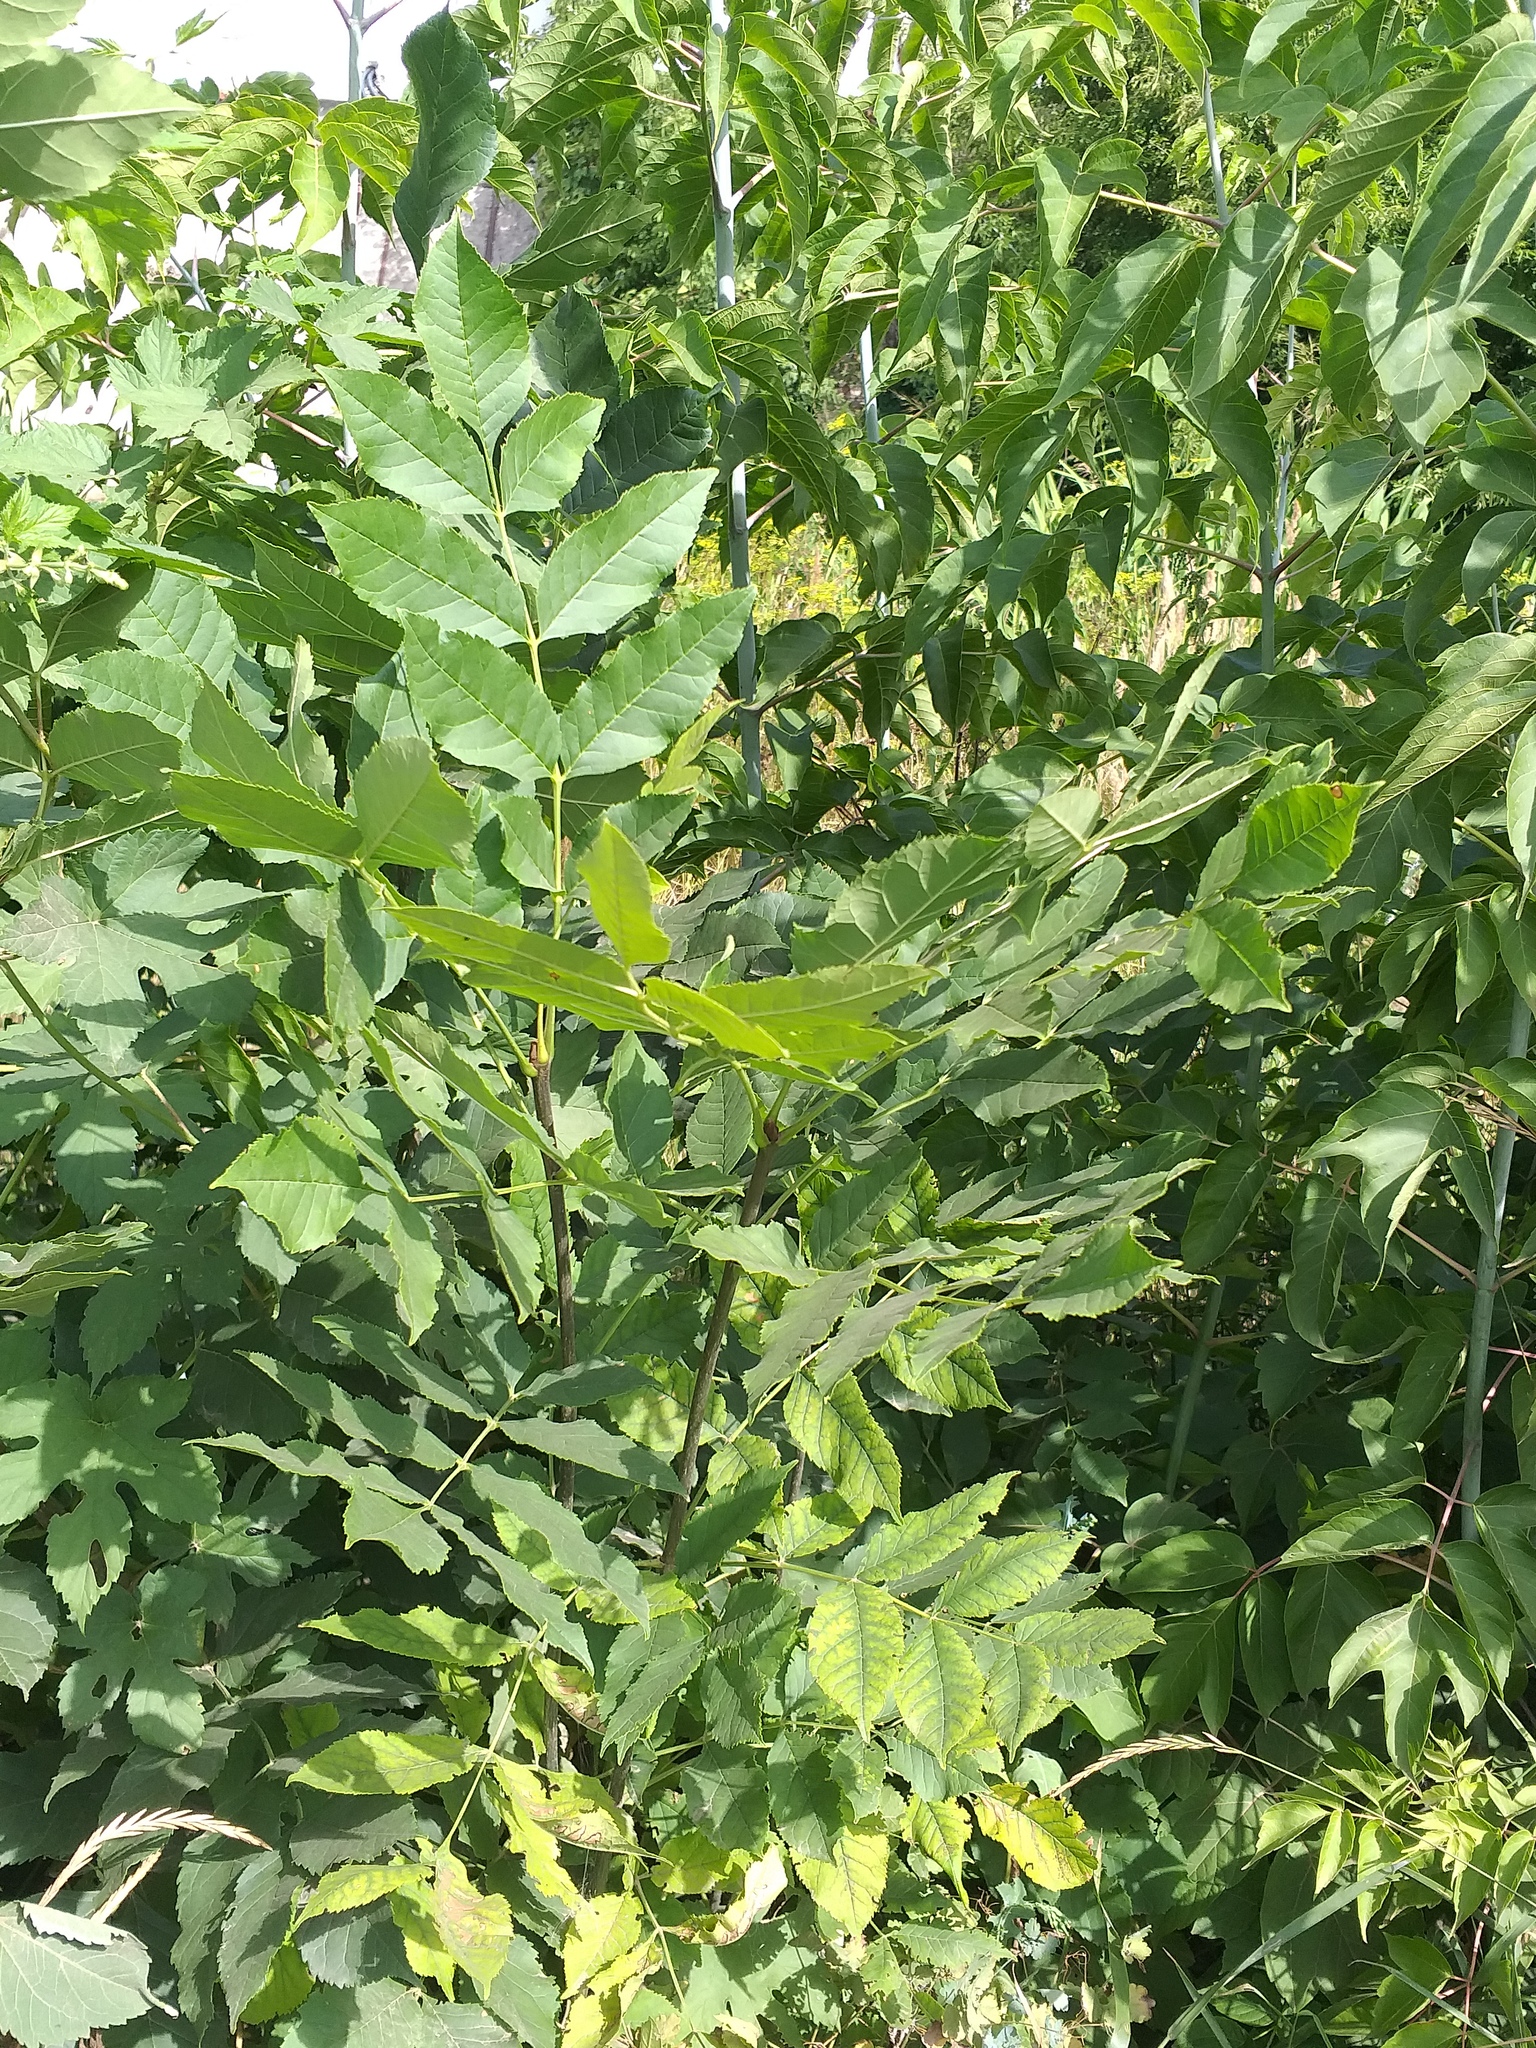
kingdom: Plantae
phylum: Tracheophyta
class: Magnoliopsida
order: Lamiales
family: Oleaceae
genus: Fraxinus
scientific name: Fraxinus pennsylvanica
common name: Green ash
